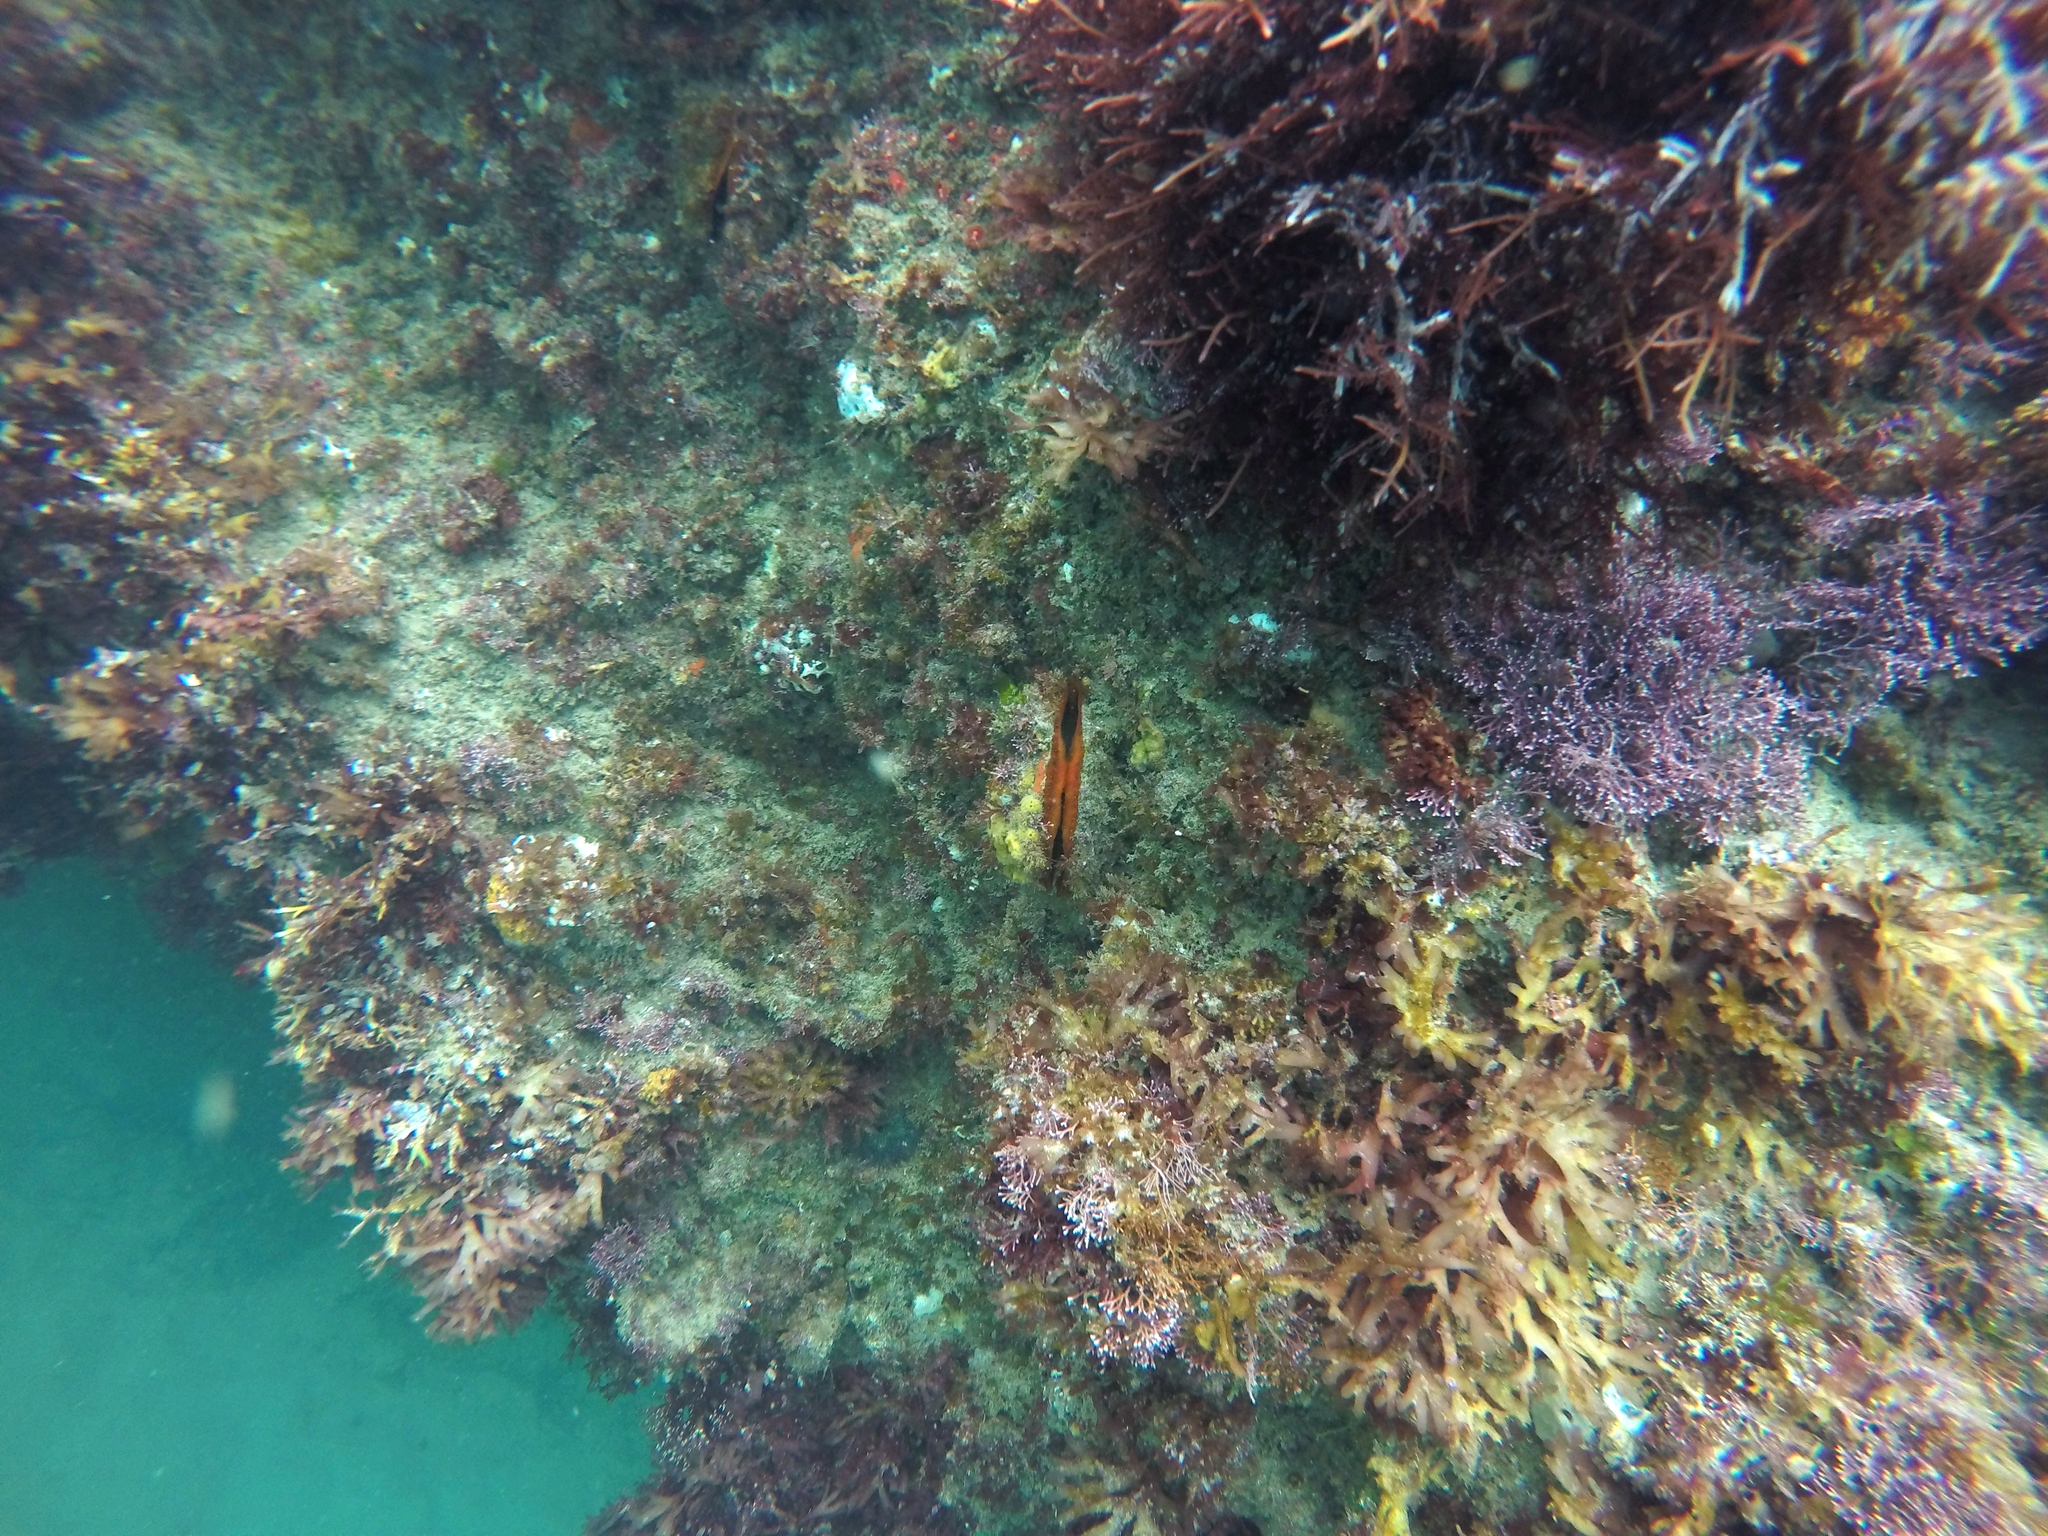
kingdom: Animalia
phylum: Mollusca
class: Bivalvia
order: Pectinida
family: Pectinidae
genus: Crassadoma
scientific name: Crassadoma gigantea
